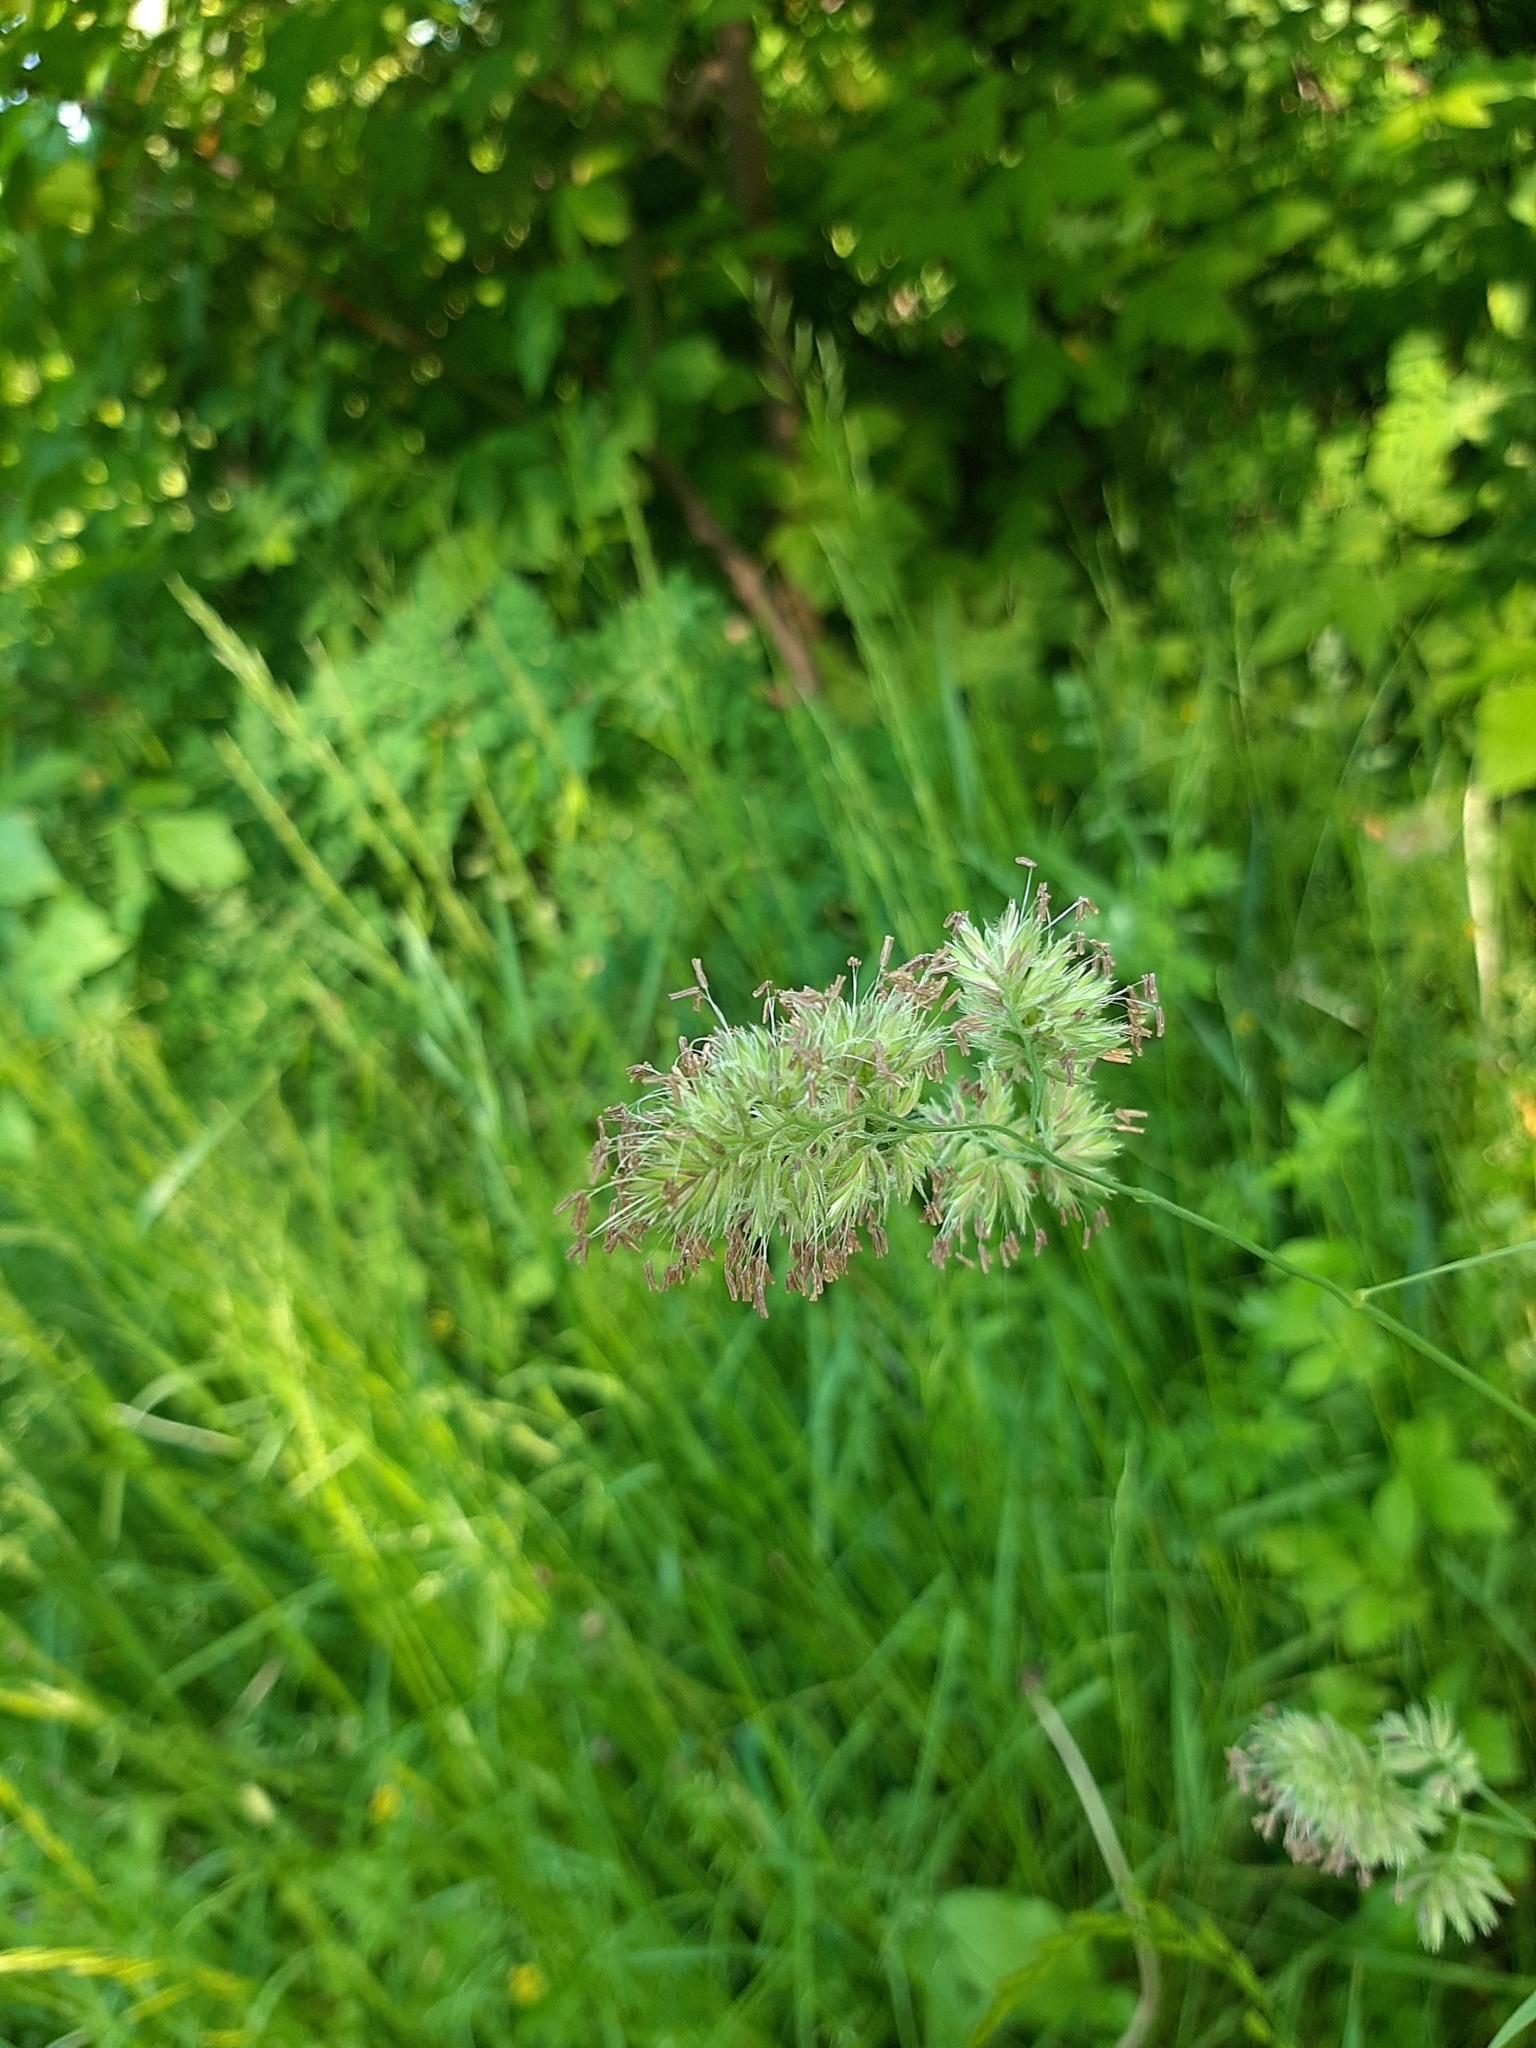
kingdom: Plantae
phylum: Tracheophyta
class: Liliopsida
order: Poales
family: Poaceae
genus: Dactylis
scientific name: Dactylis glomerata
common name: Orchardgrass
